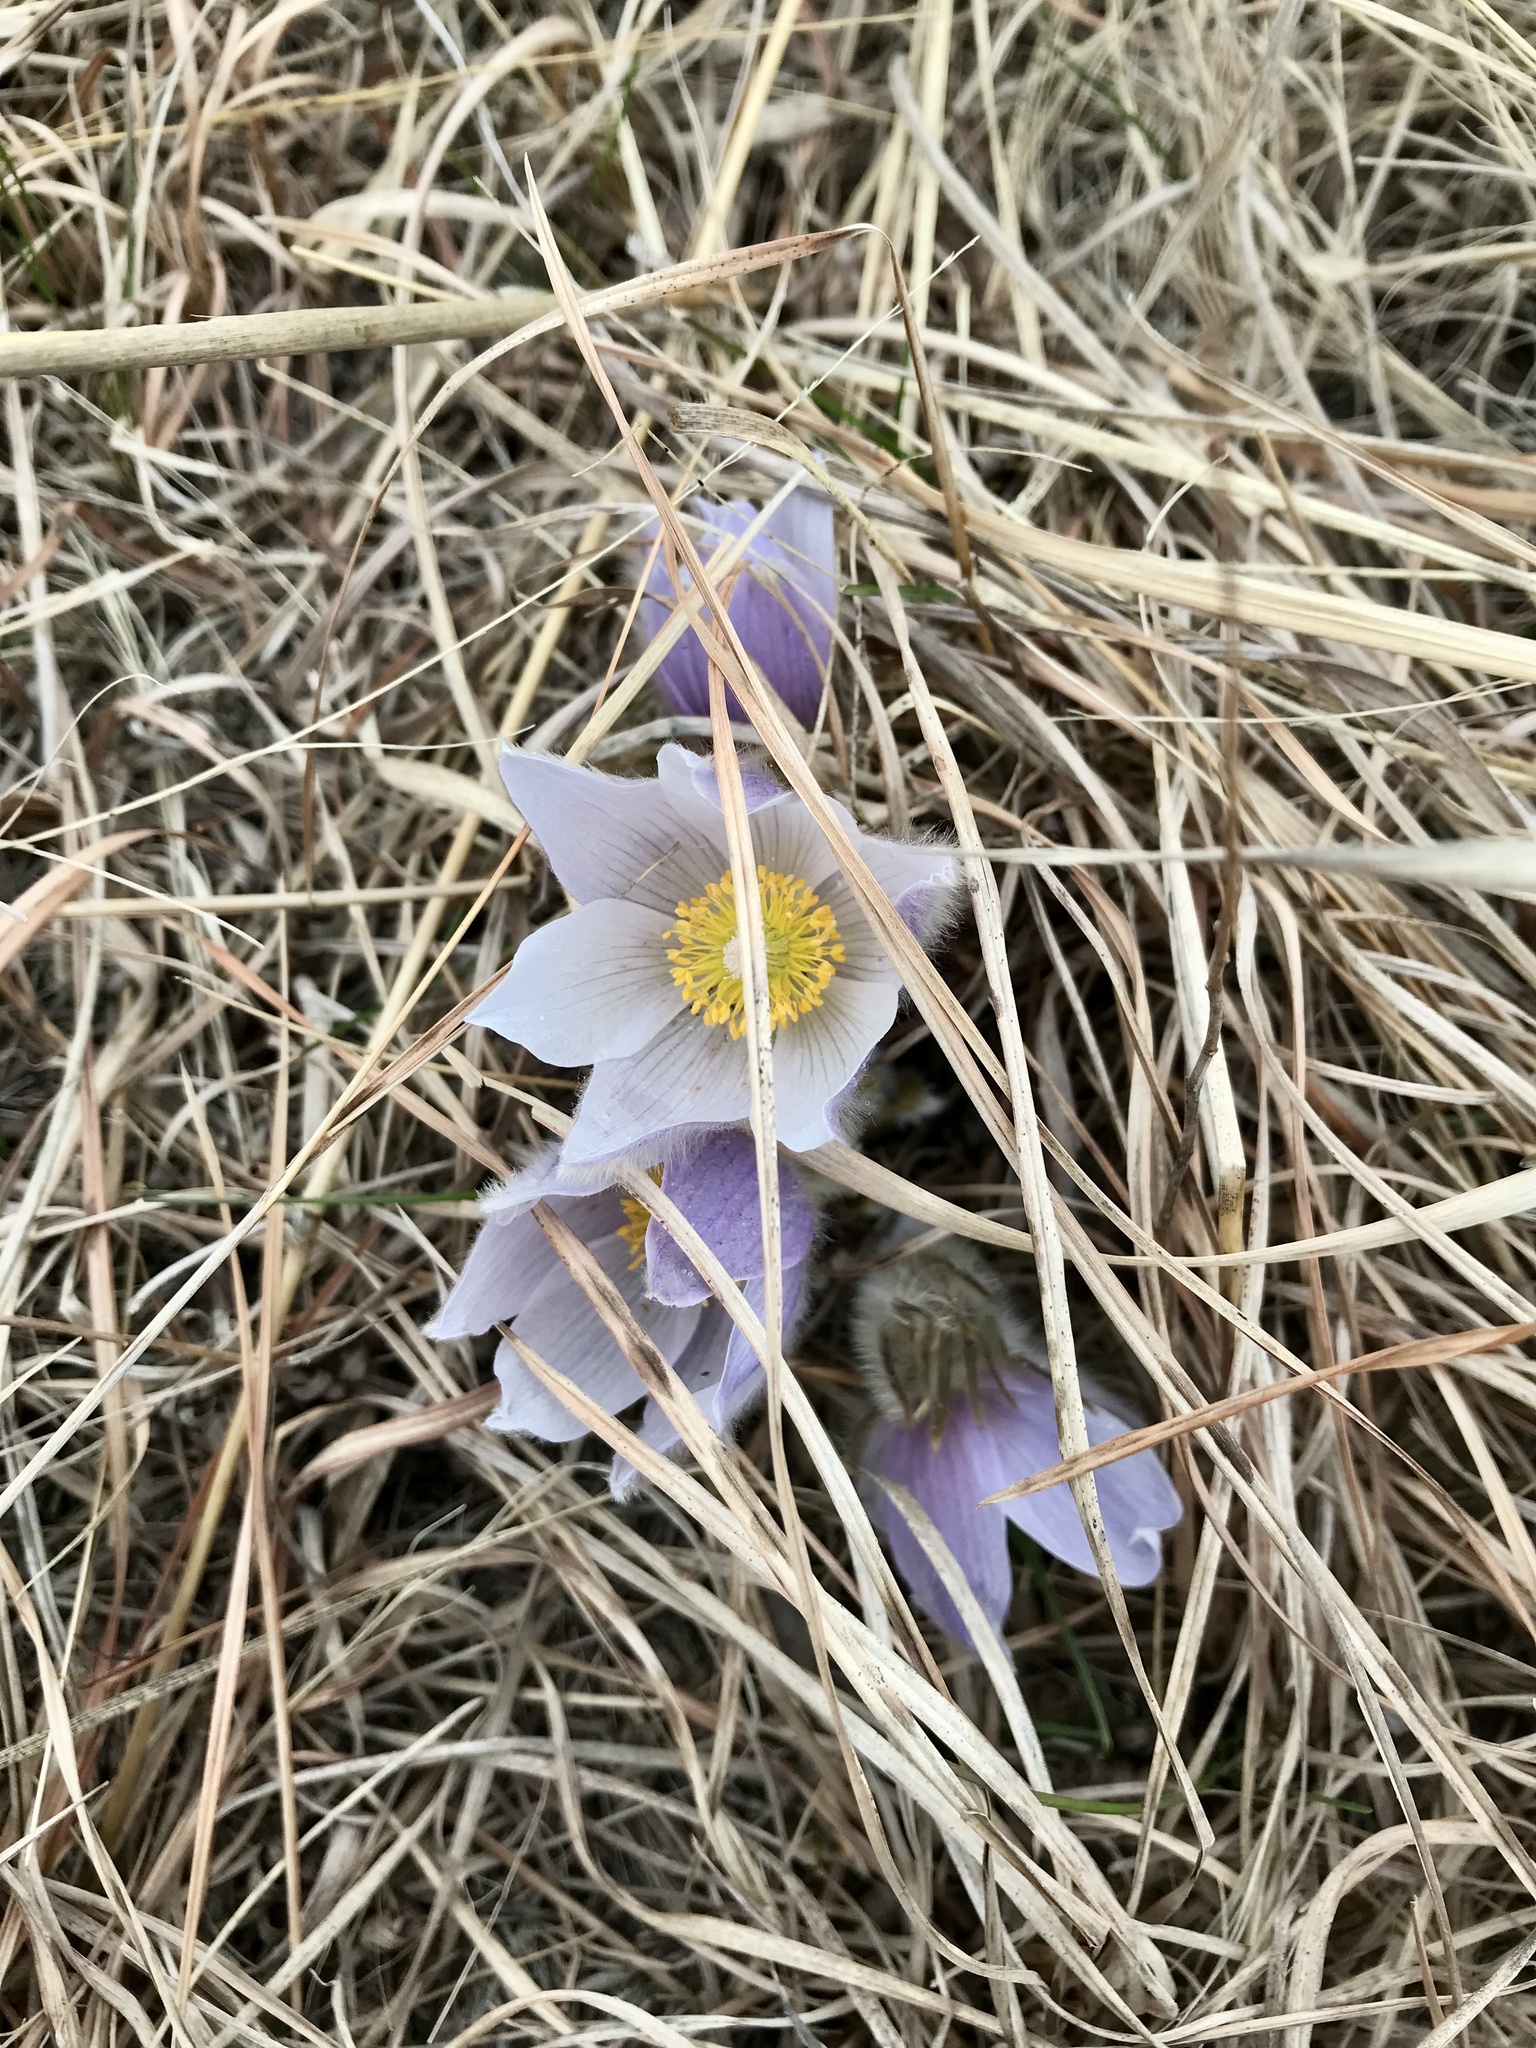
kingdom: Plantae
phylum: Tracheophyta
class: Magnoliopsida
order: Ranunculales
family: Ranunculaceae
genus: Pulsatilla
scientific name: Pulsatilla nuttalliana
